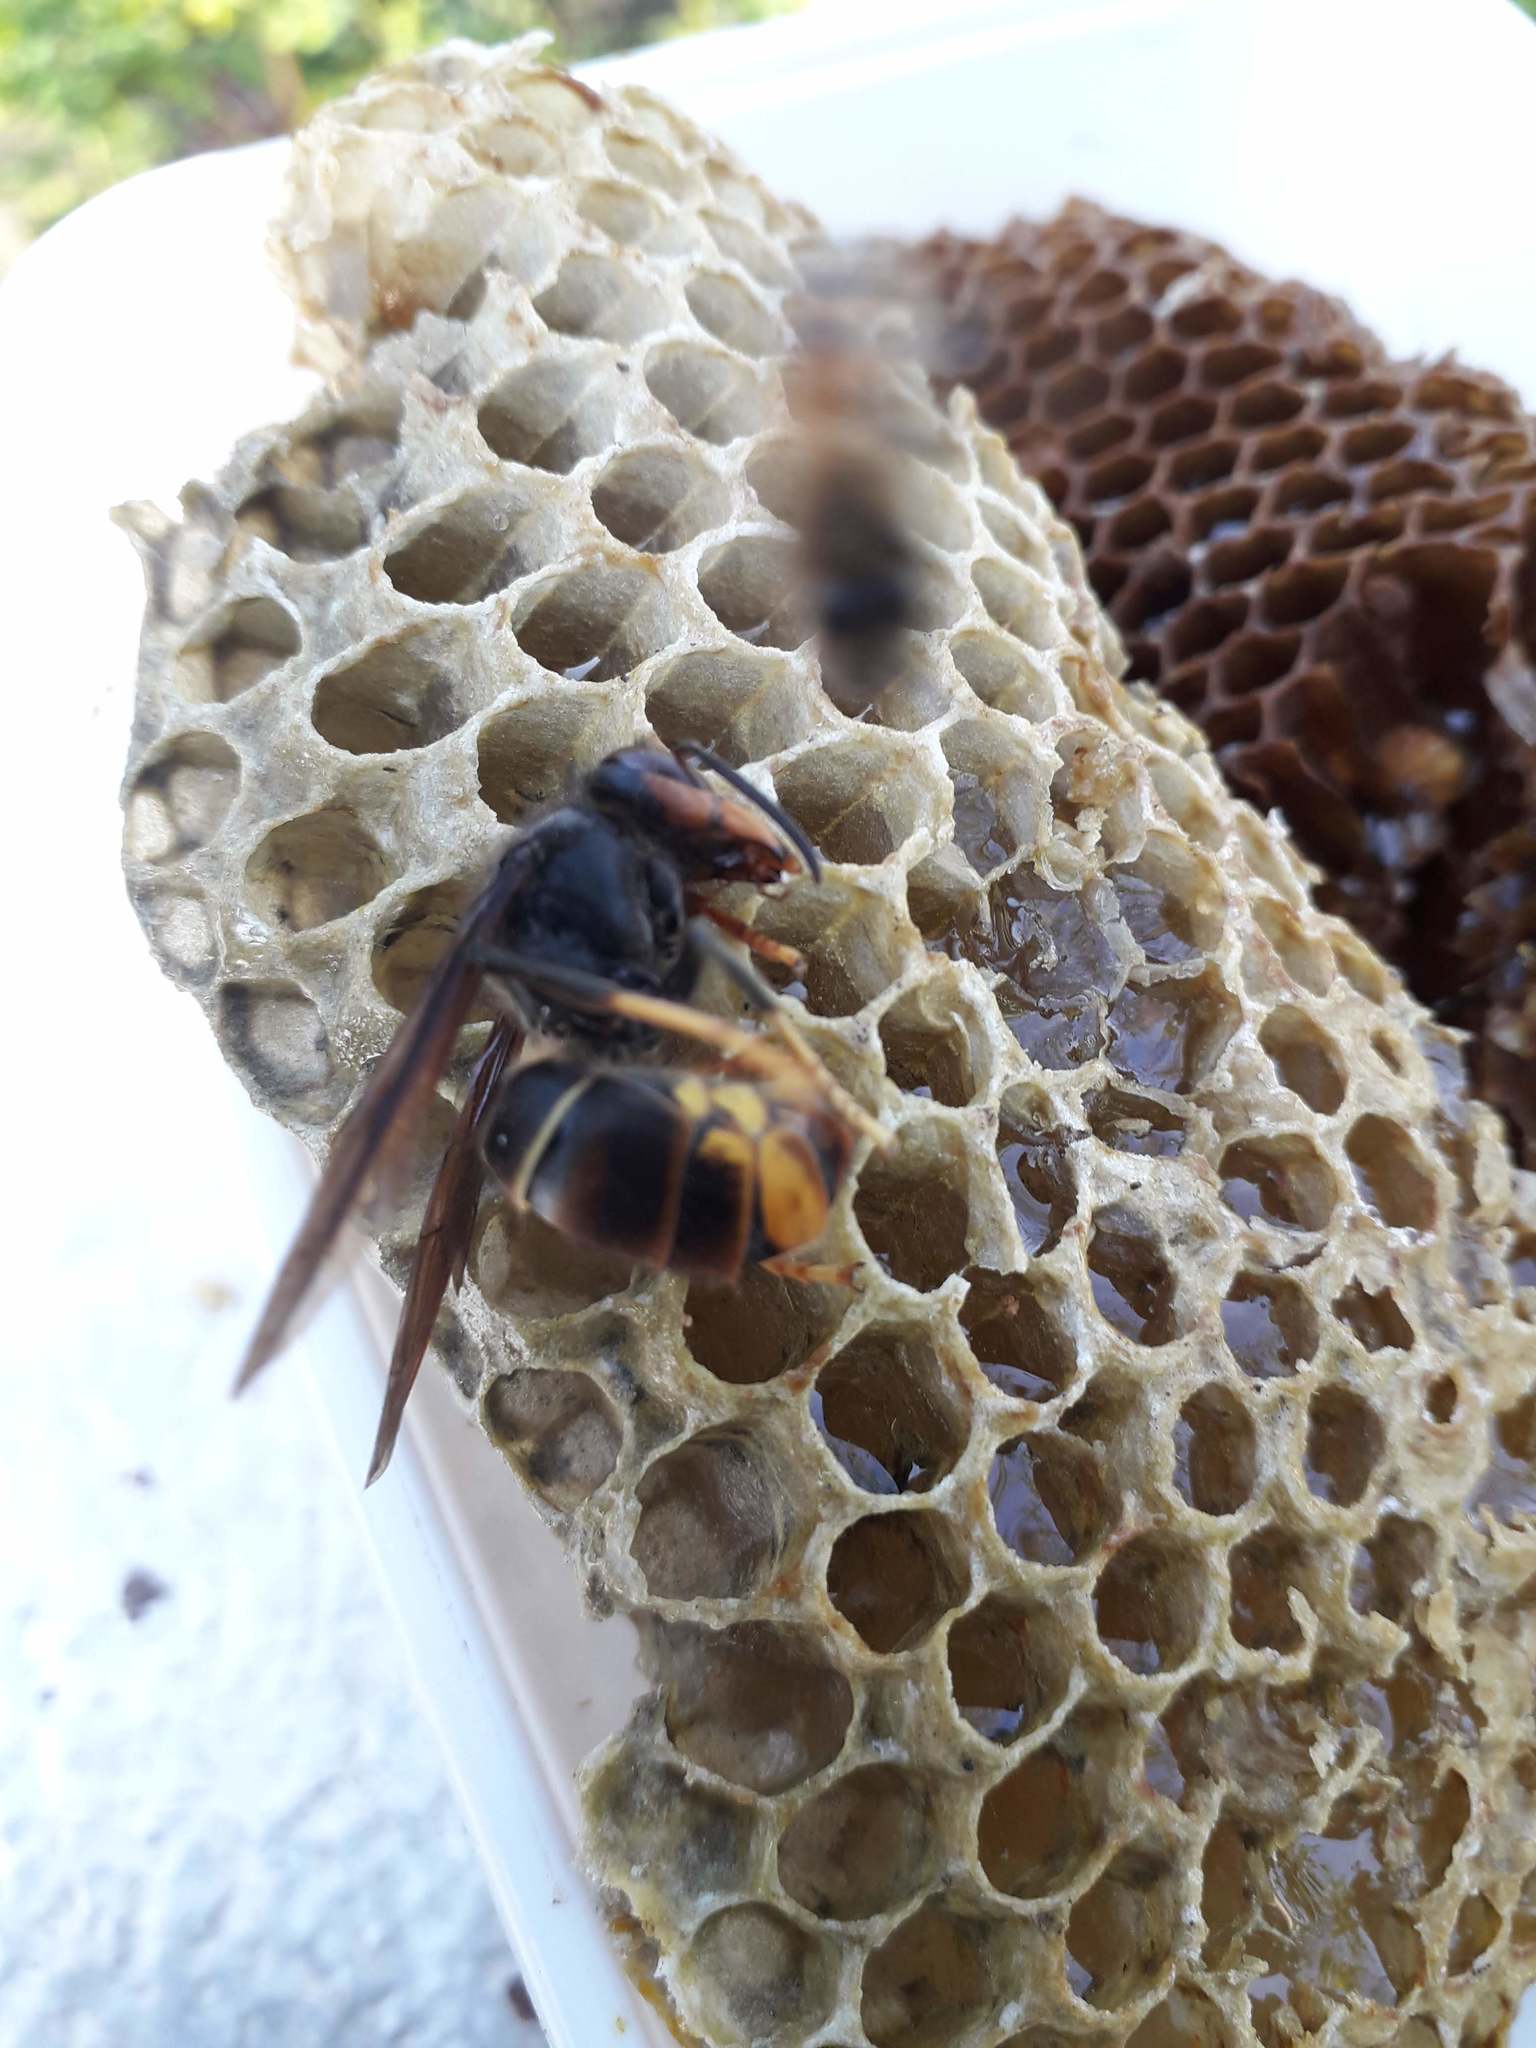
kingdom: Animalia
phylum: Arthropoda
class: Insecta
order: Hymenoptera
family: Vespidae
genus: Vespa
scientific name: Vespa velutina
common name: Asian hornet
